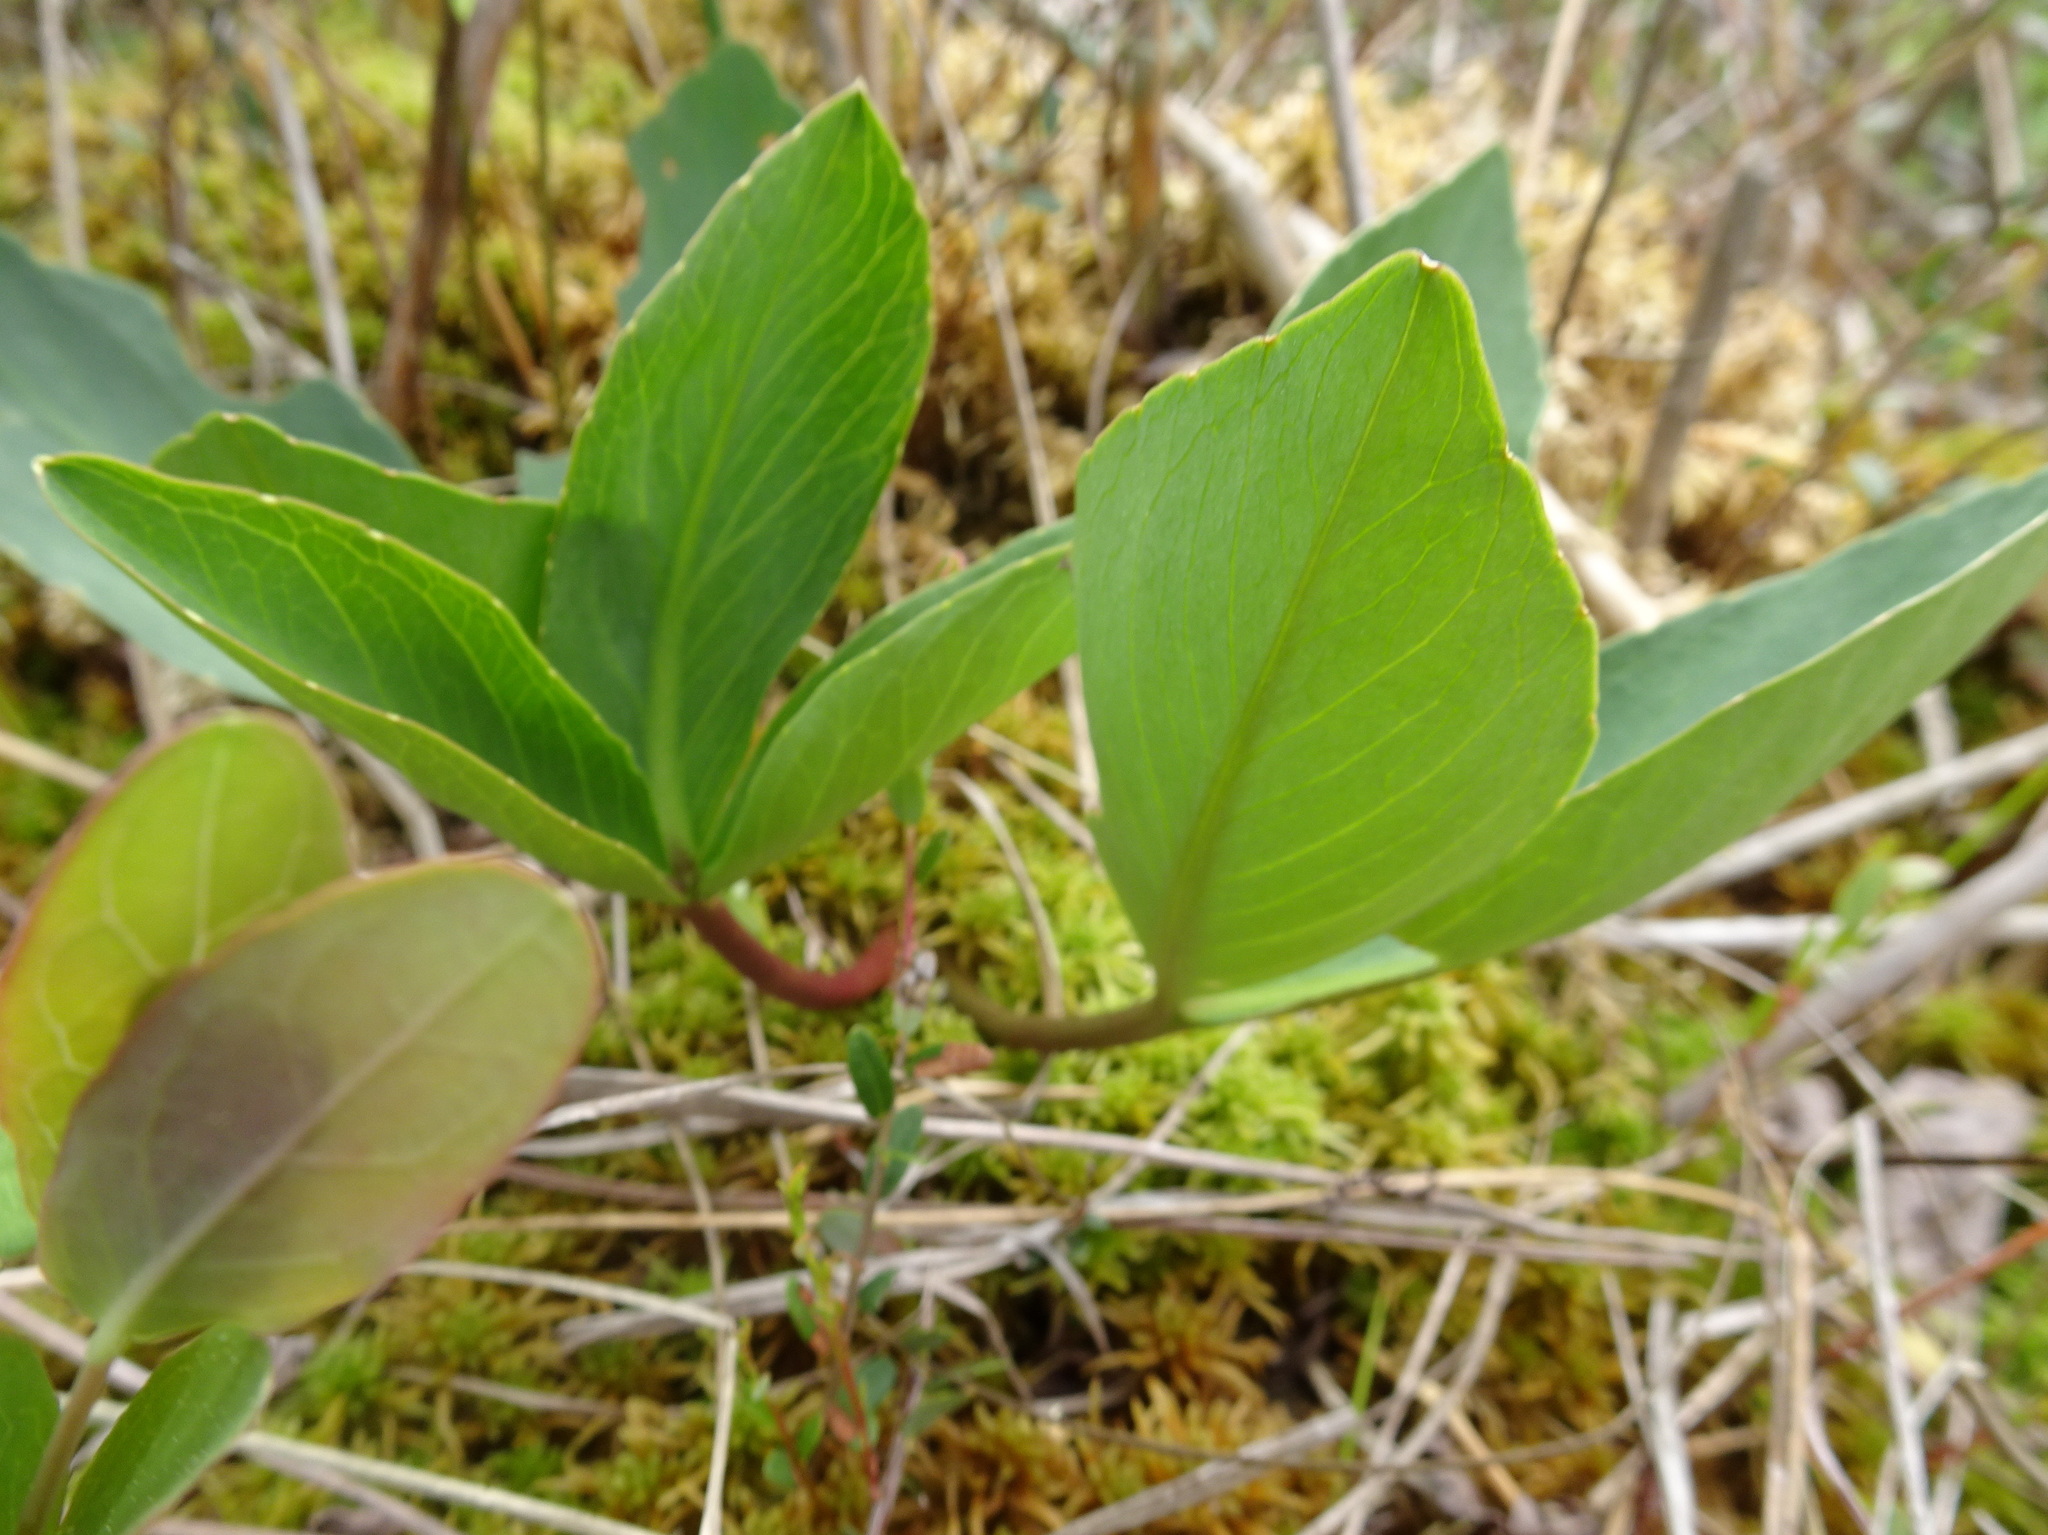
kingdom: Plantae
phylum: Tracheophyta
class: Magnoliopsida
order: Asterales
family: Menyanthaceae
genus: Menyanthes
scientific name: Menyanthes trifoliata
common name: Bogbean
